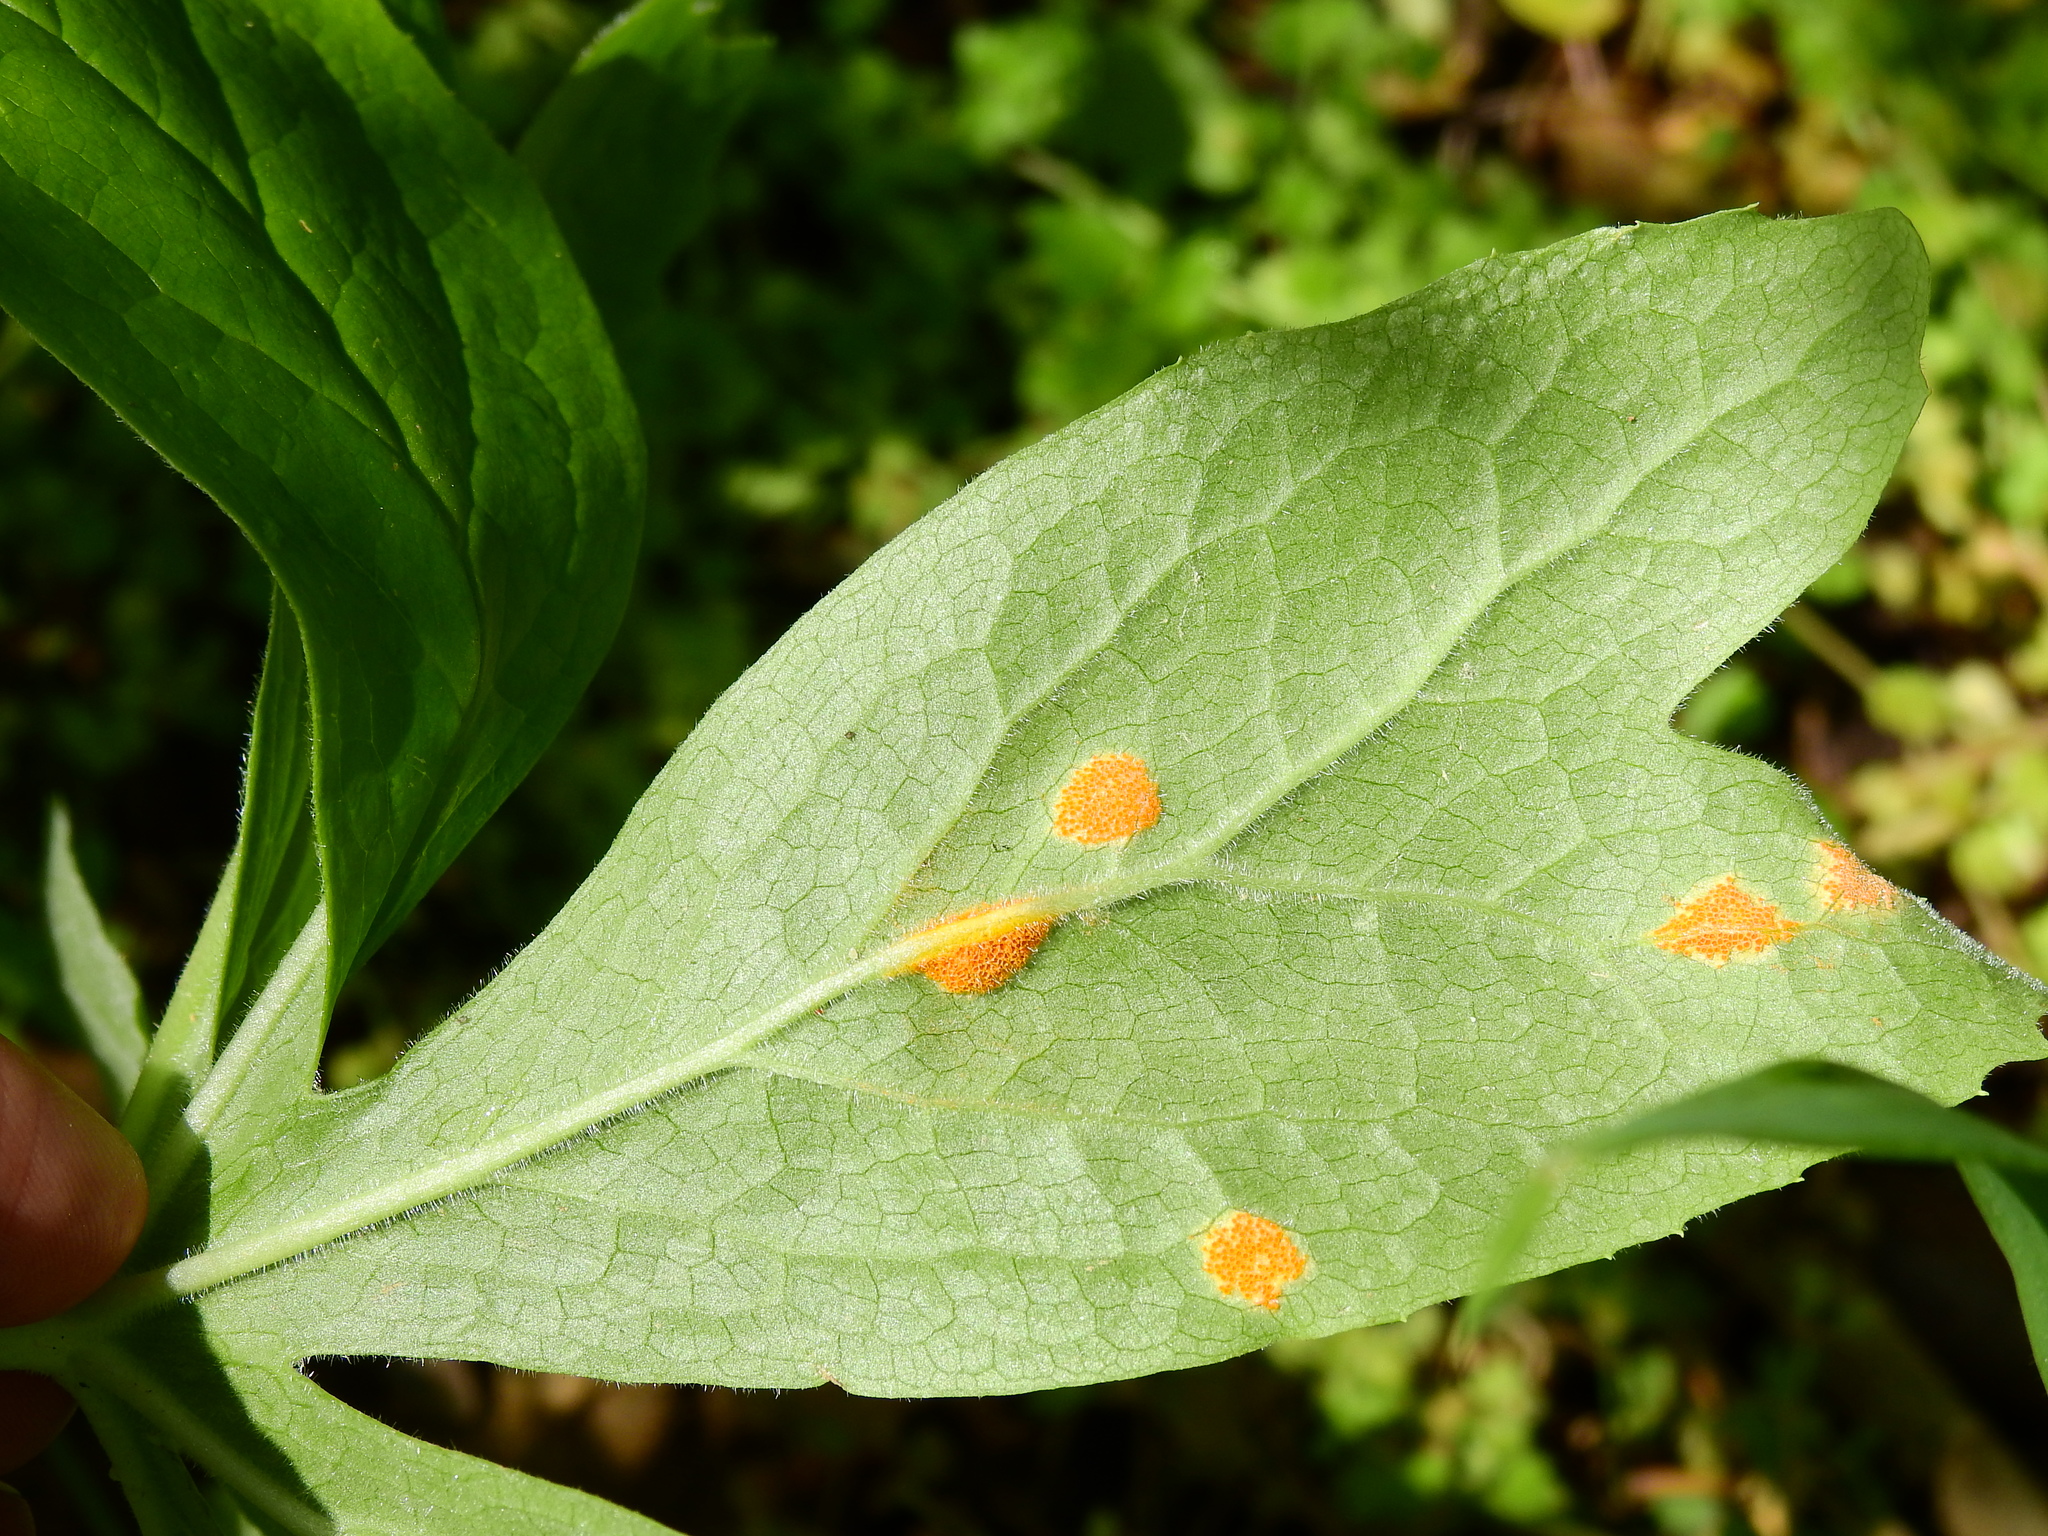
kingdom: Fungi
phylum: Basidiomycota
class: Pucciniomycetes
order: Pucciniales
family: Pucciniaceae
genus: Puccinia
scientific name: Puccinia podophylli
